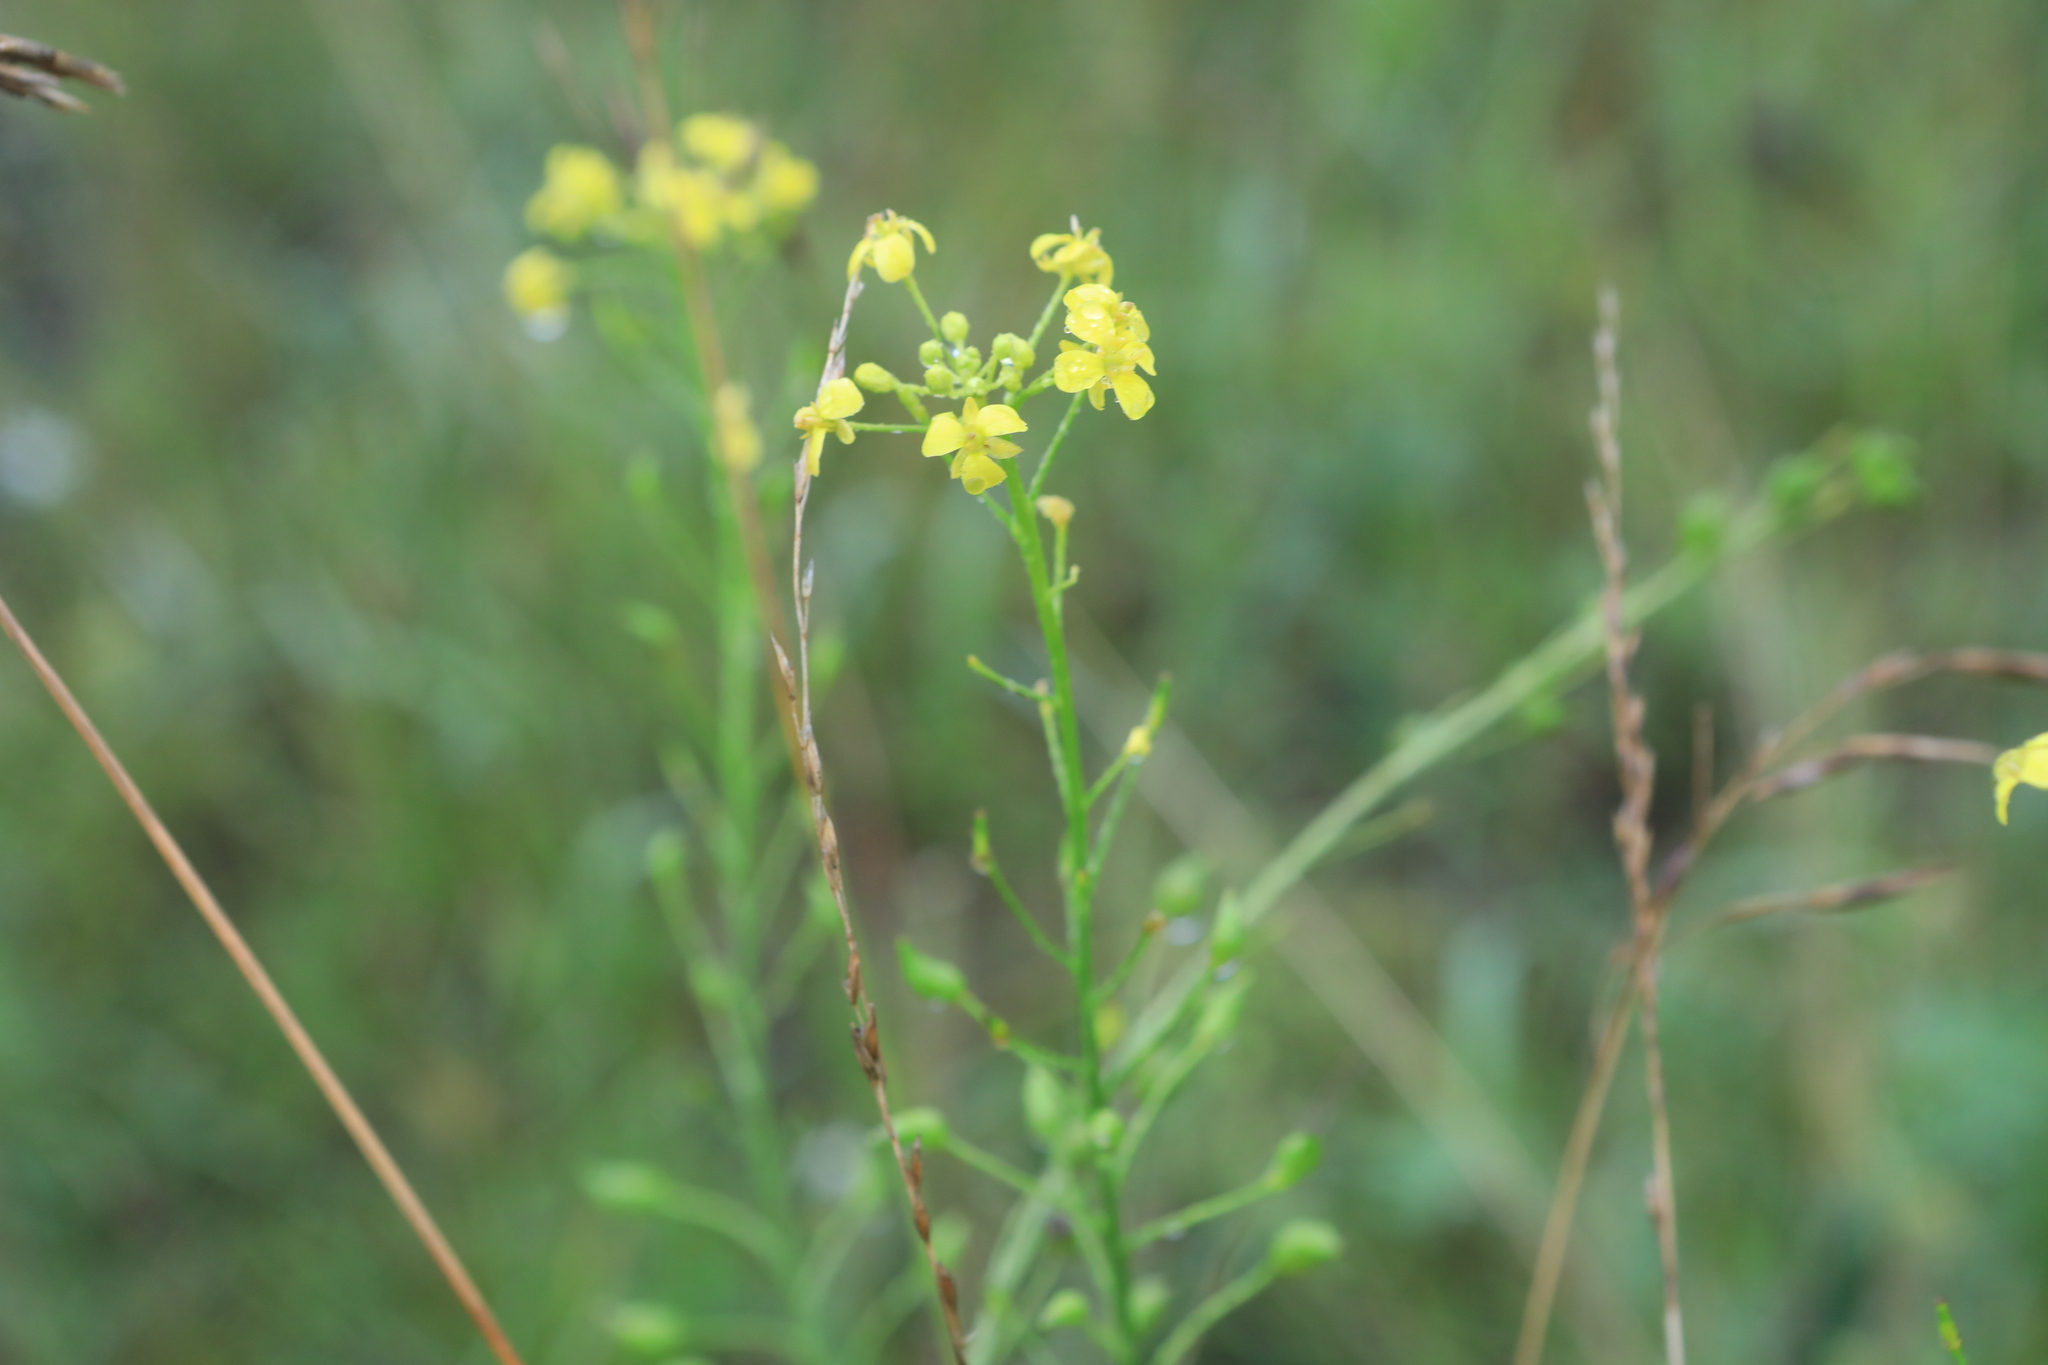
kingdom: Plantae
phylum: Tracheophyta
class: Magnoliopsida
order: Brassicales
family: Brassicaceae
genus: Bunias
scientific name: Bunias orientalis
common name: Warty-cabbage
